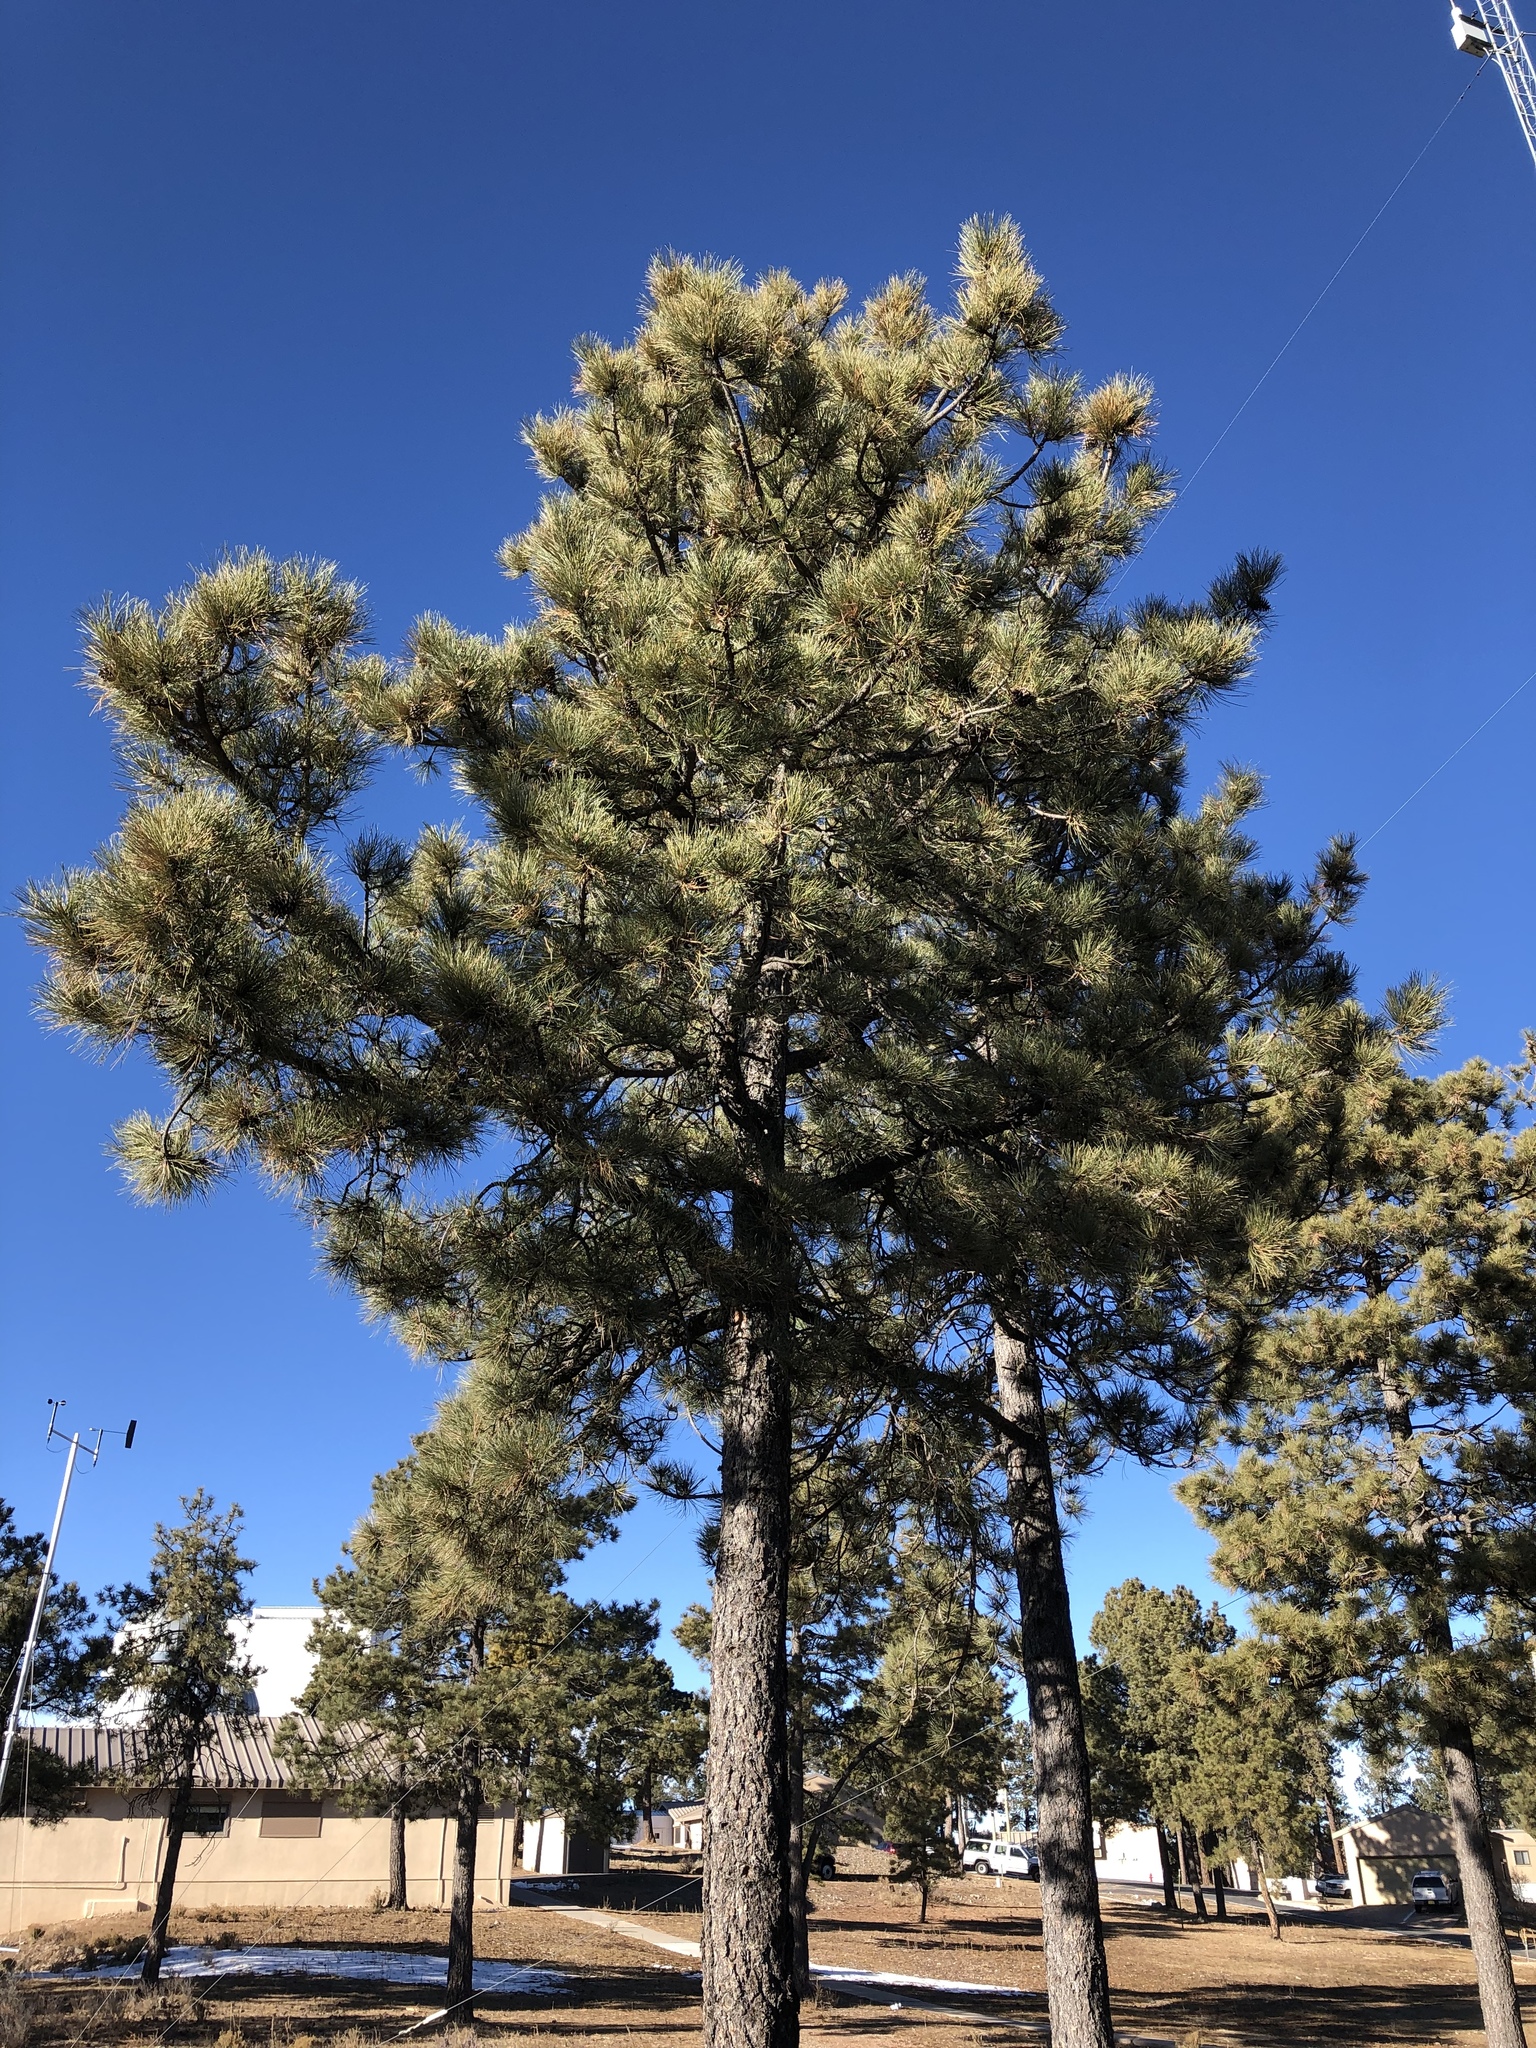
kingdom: Plantae
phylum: Tracheophyta
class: Pinopsida
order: Pinales
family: Pinaceae
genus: Pinus
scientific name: Pinus ponderosa
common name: Western yellow-pine
